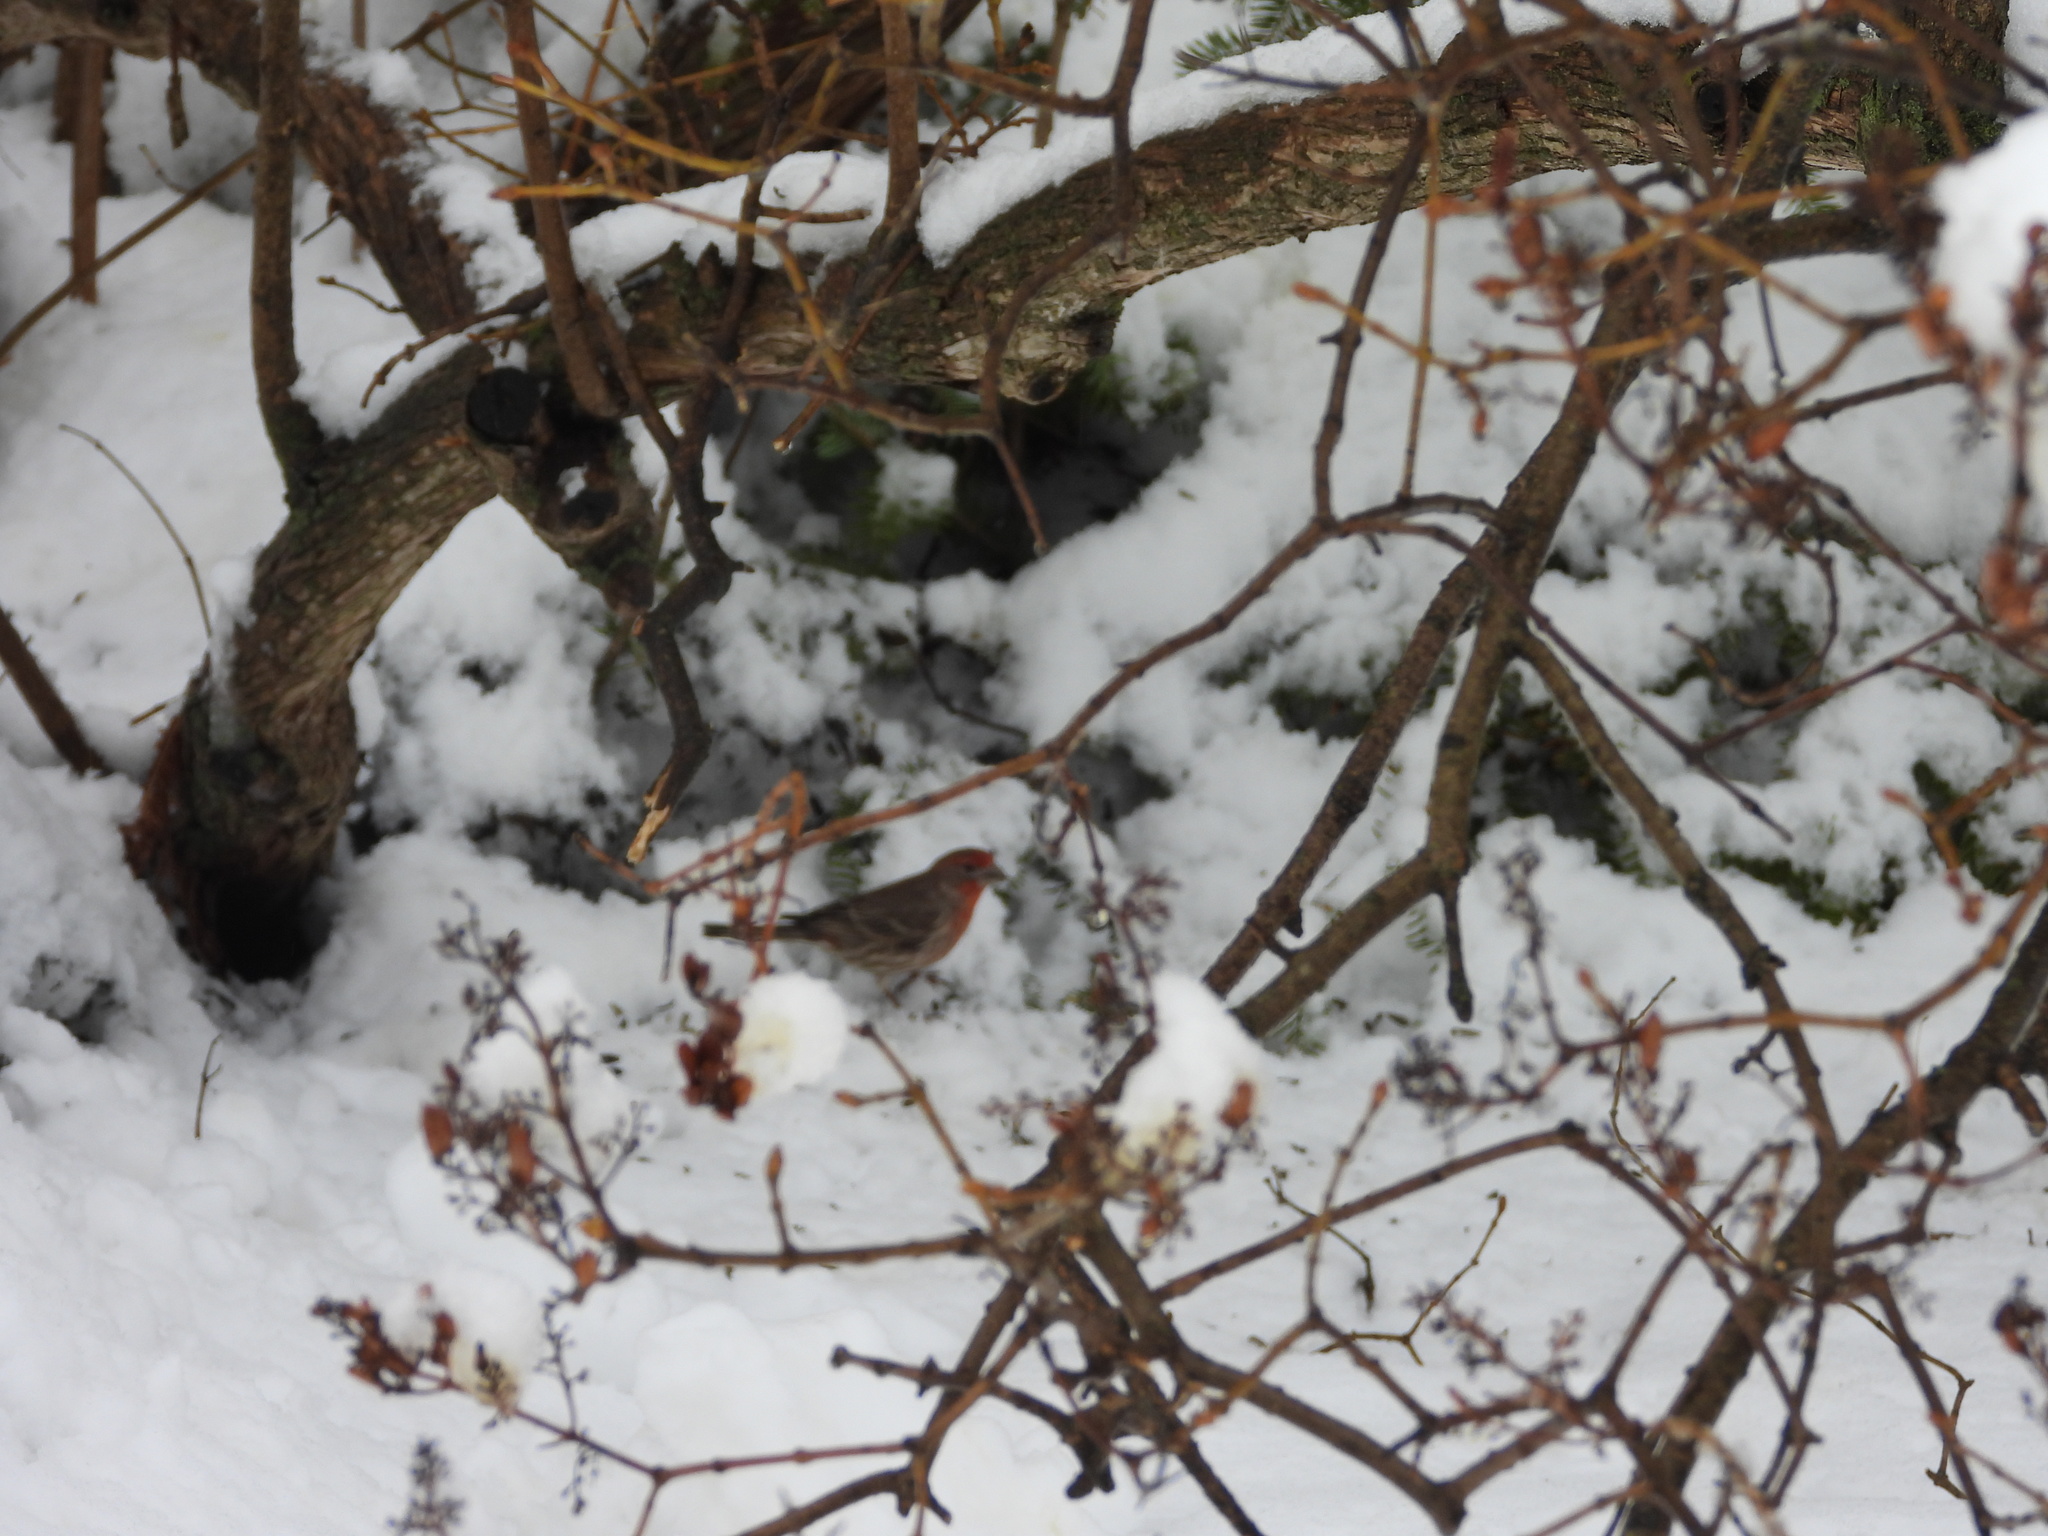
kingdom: Animalia
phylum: Chordata
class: Aves
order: Passeriformes
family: Fringillidae
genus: Haemorhous
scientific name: Haemorhous mexicanus
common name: House finch
